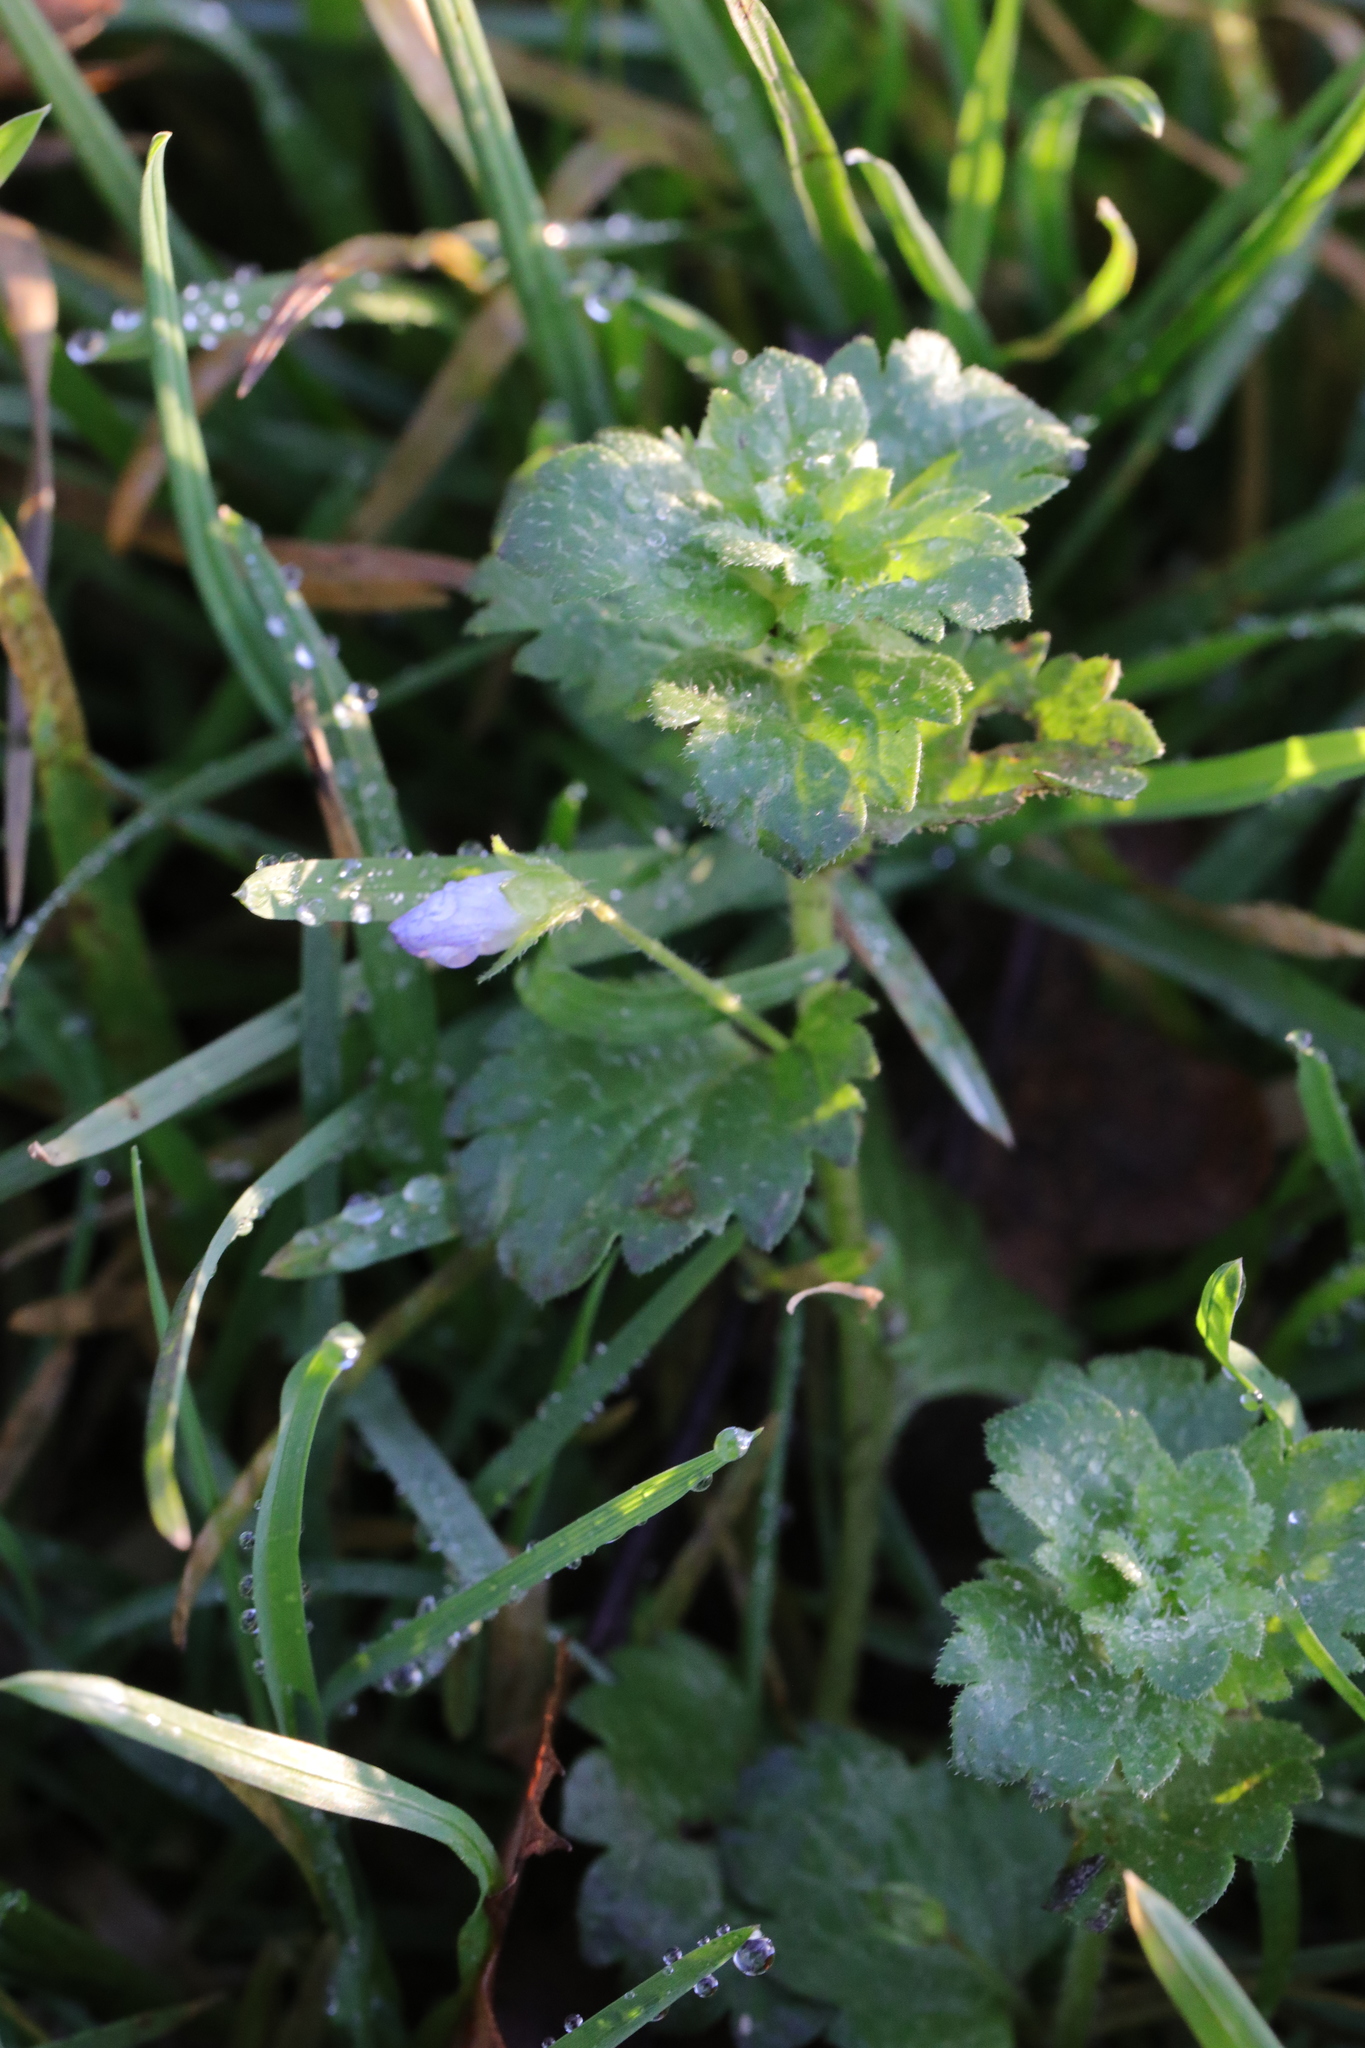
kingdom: Plantae
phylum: Tracheophyta
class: Magnoliopsida
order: Lamiales
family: Plantaginaceae
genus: Veronica
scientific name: Veronica persica
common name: Common field-speedwell
